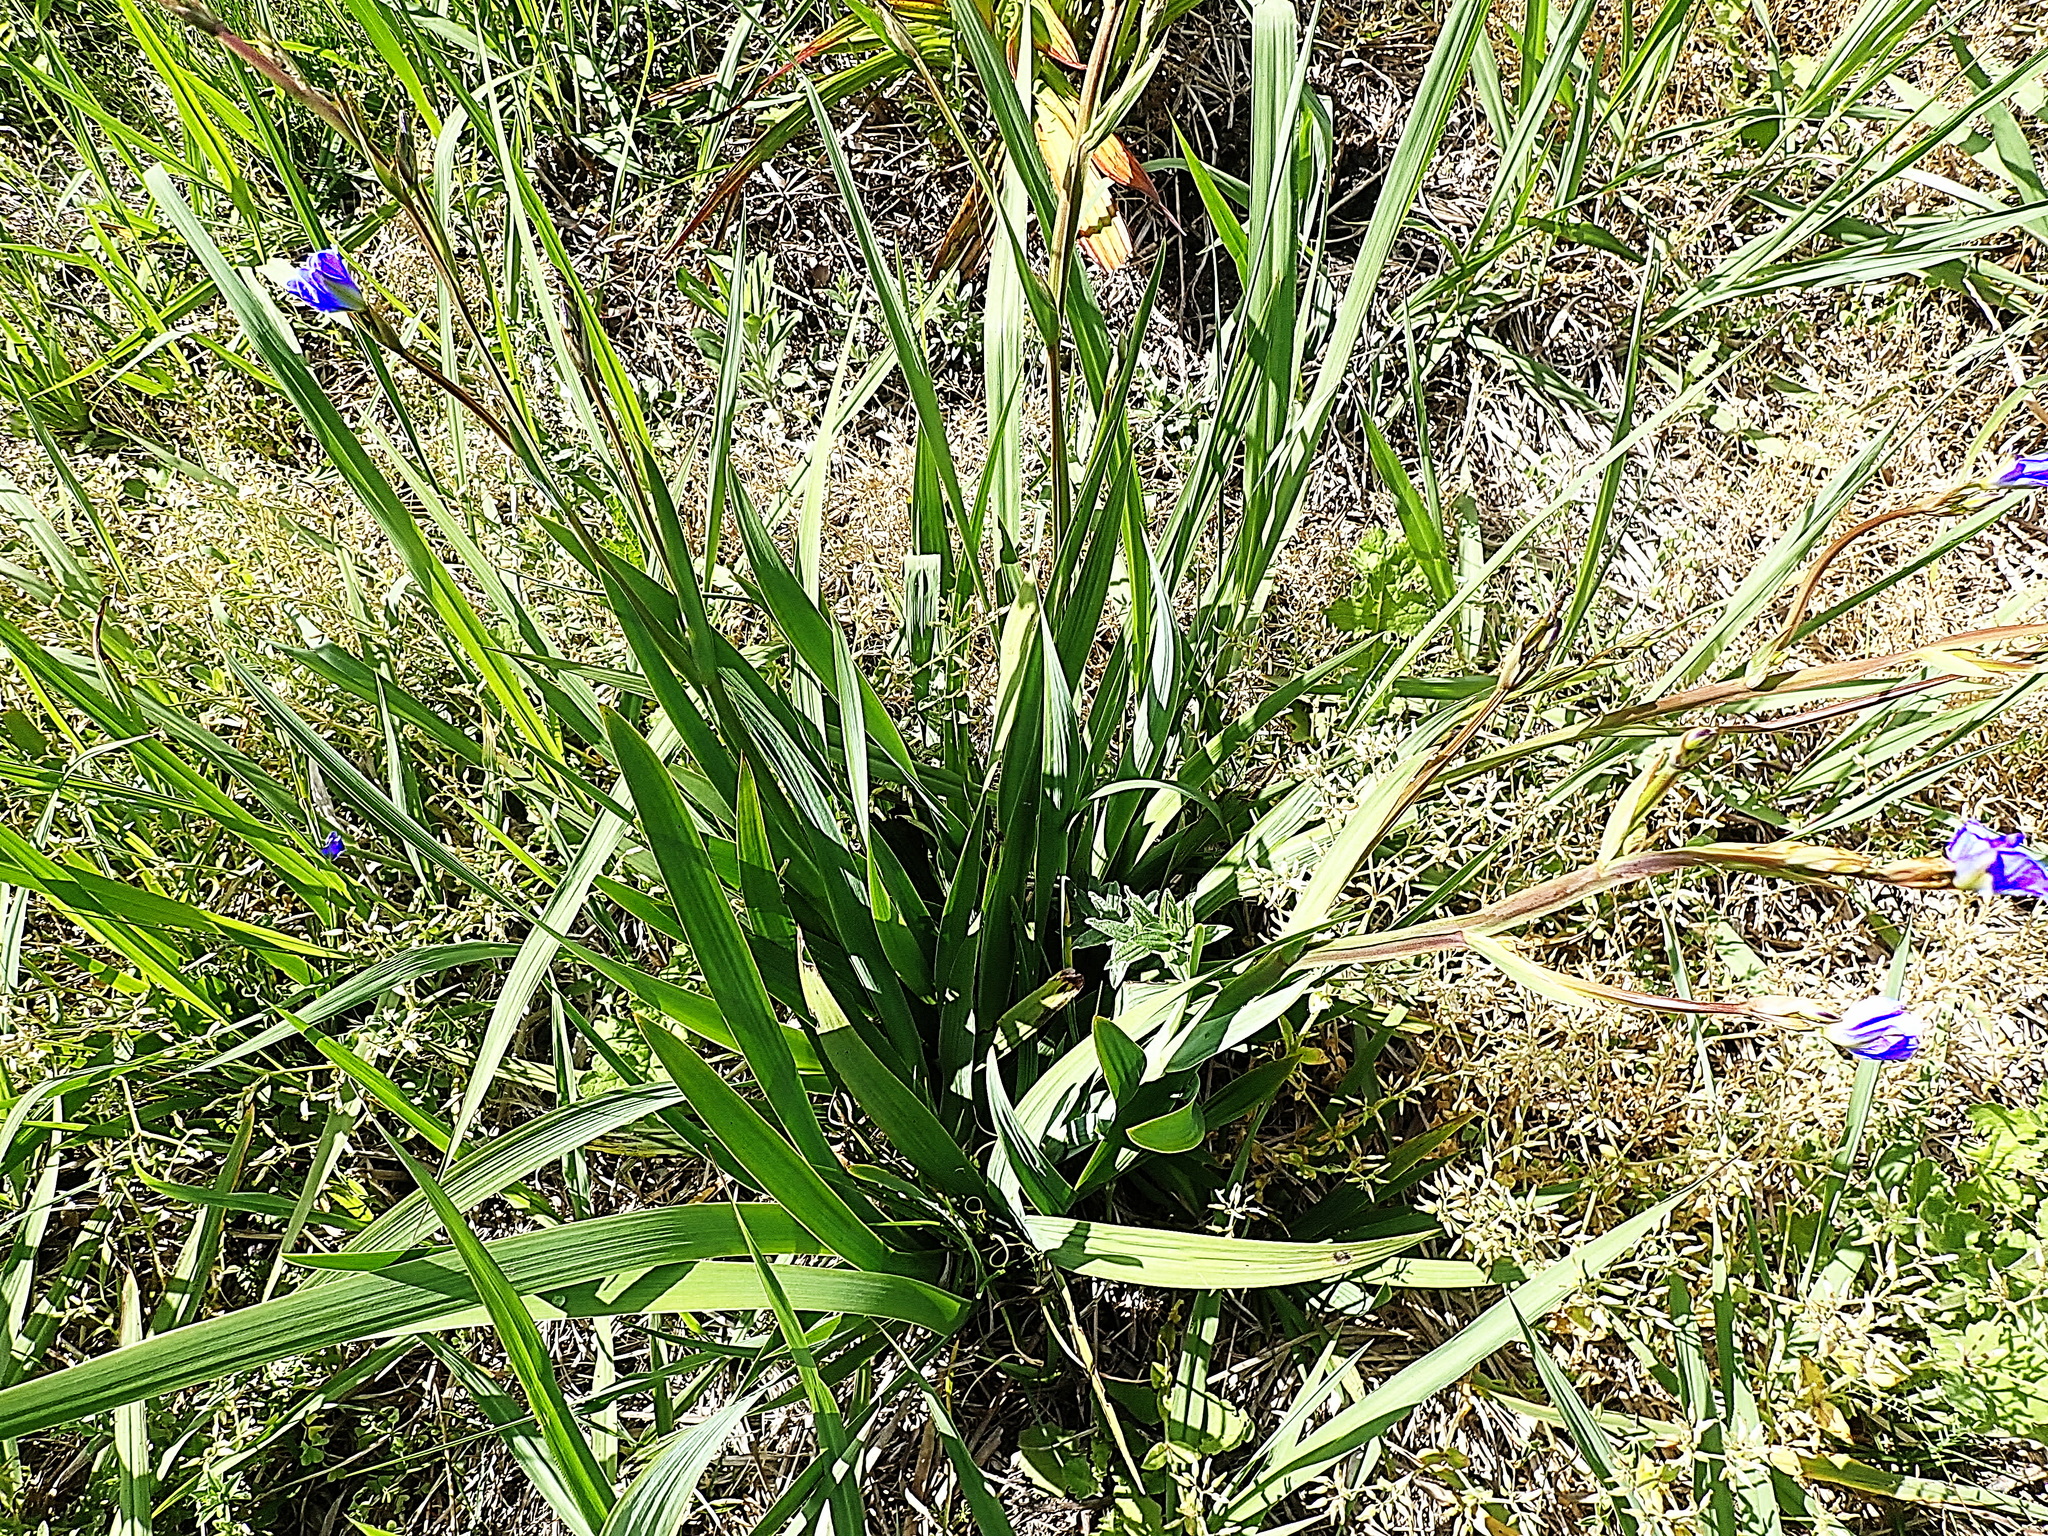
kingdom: Plantae
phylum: Tracheophyta
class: Liliopsida
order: Asparagales
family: Iridaceae
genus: Aristea
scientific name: Aristea ecklonii
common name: Blue corn-lily
